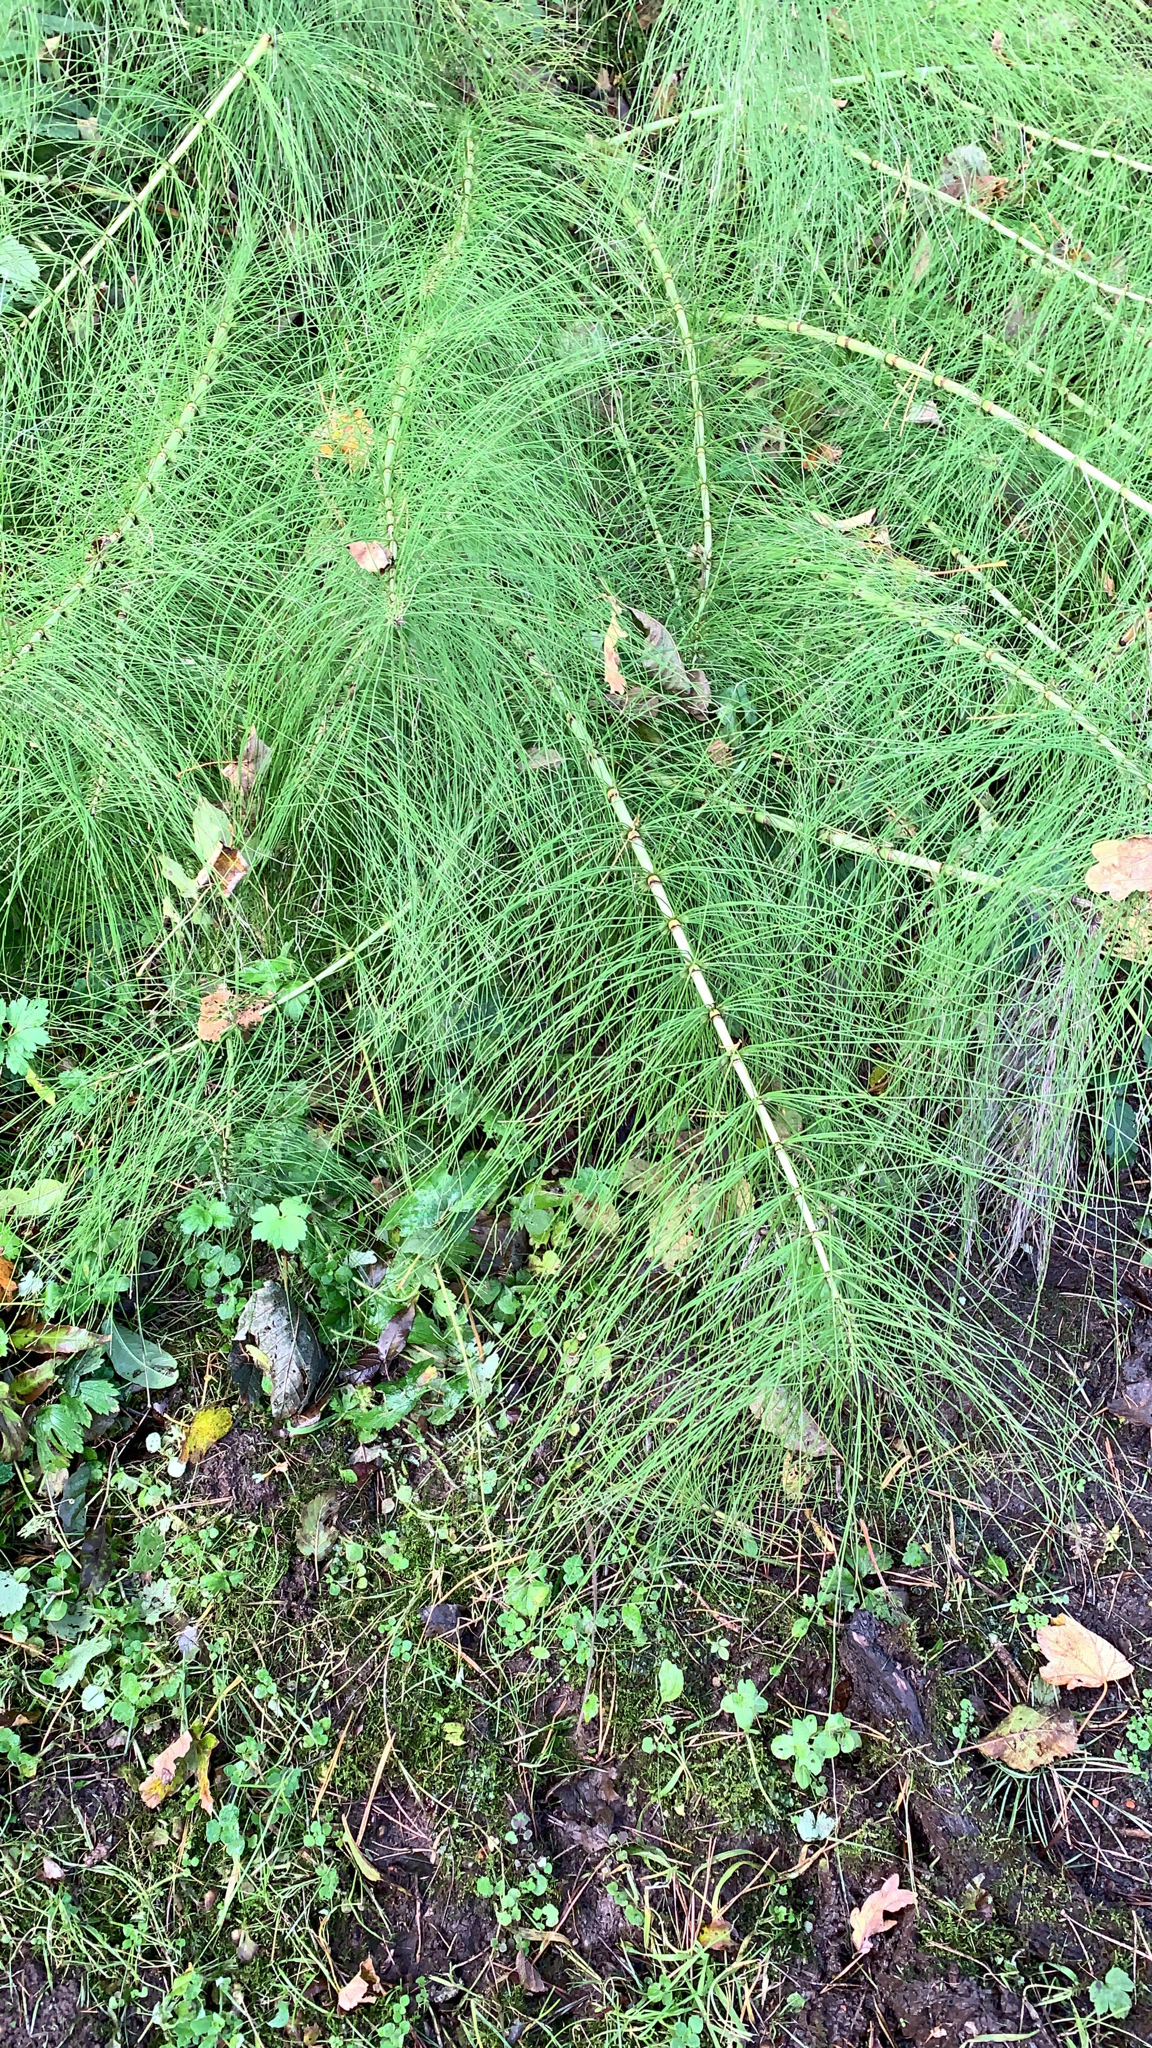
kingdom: Plantae
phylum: Tracheophyta
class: Polypodiopsida
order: Equisetales
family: Equisetaceae
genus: Equisetum
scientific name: Equisetum telmateia
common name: Great horsetail
